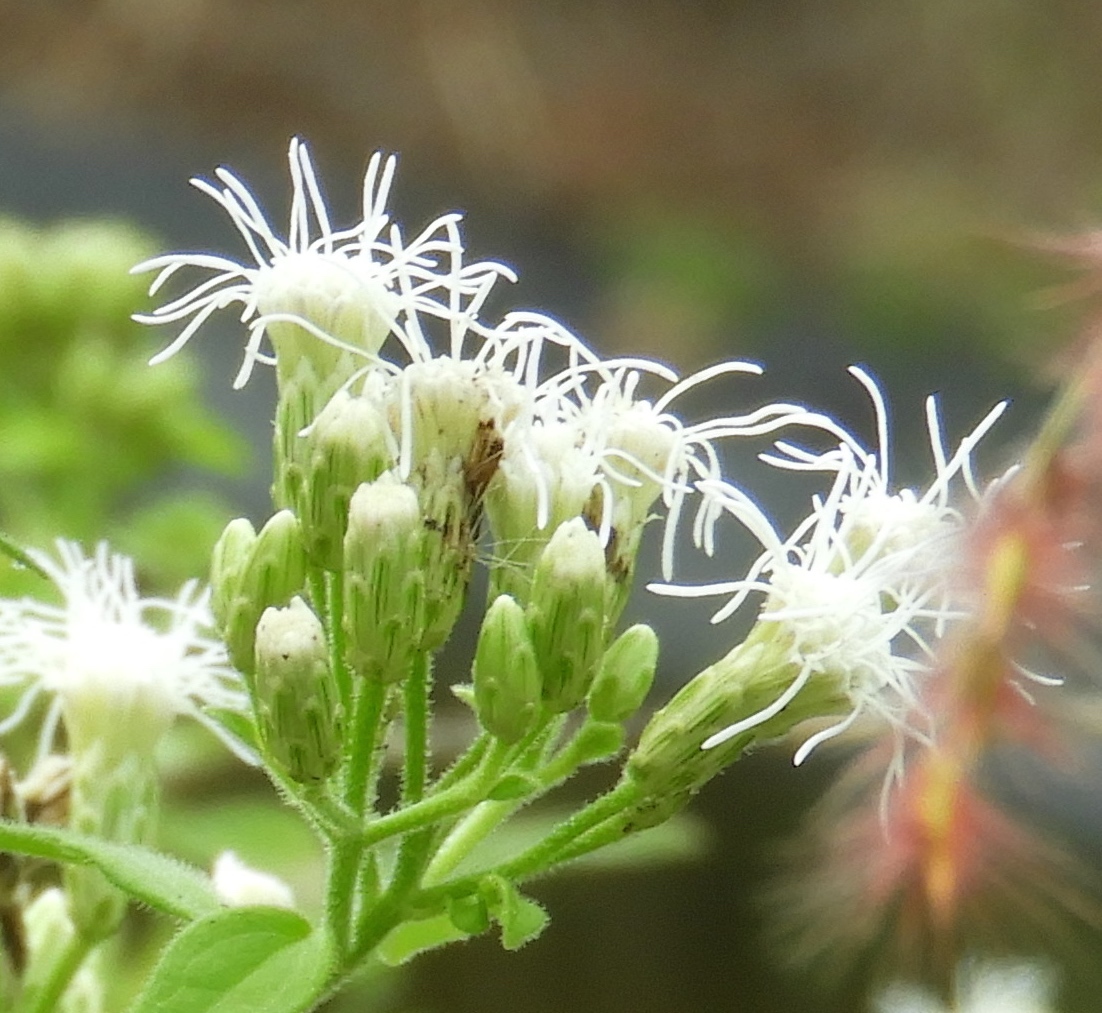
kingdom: Plantae
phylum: Tracheophyta
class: Magnoliopsida
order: Asterales
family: Asteraceae
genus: Chromolaena
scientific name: Chromolaena odorata
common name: Siamweed
